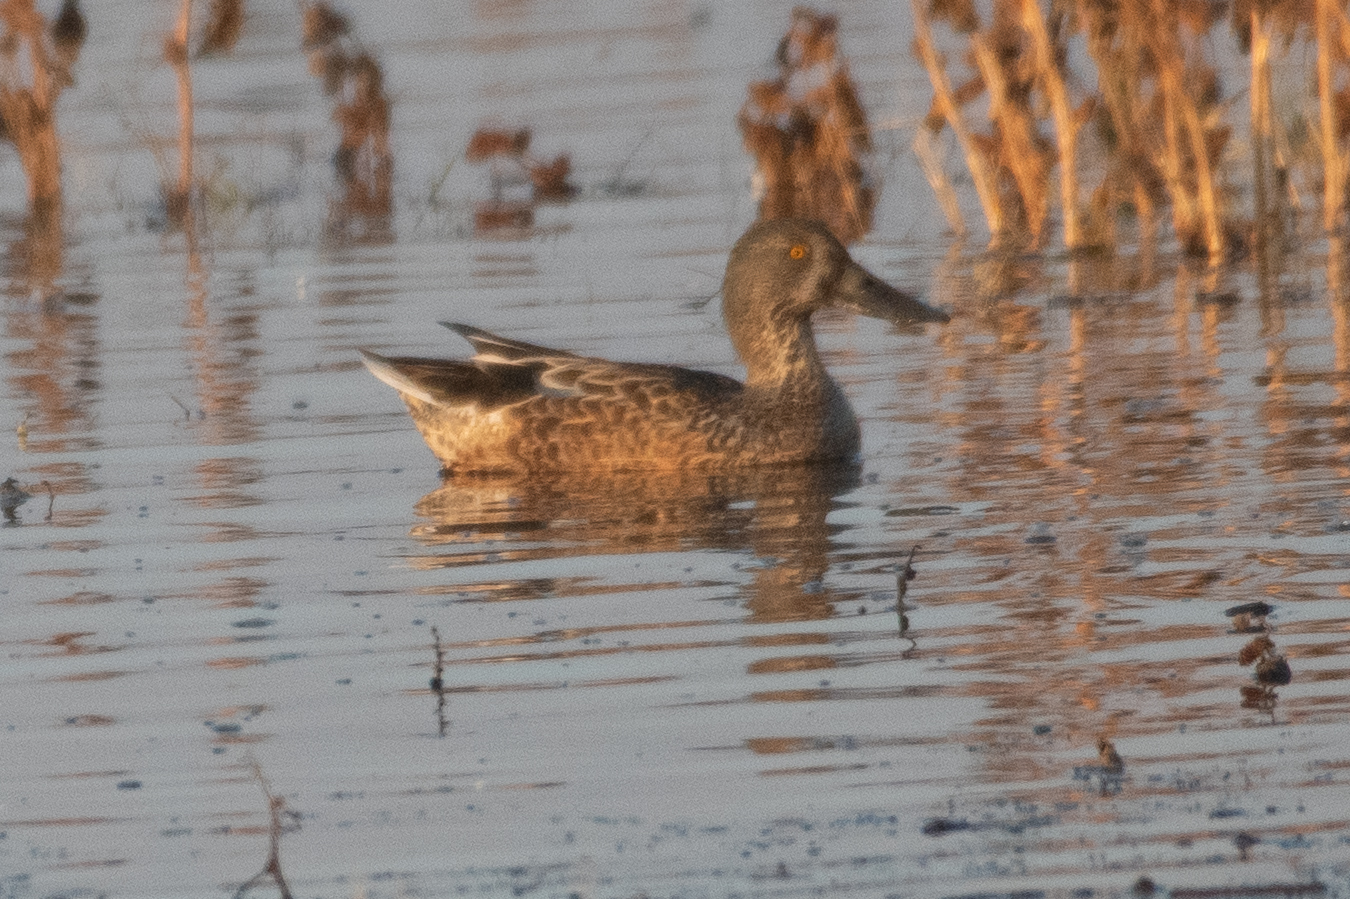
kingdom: Animalia
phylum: Chordata
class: Aves
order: Anseriformes
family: Anatidae
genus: Spatula
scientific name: Spatula clypeata
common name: Northern shoveler
